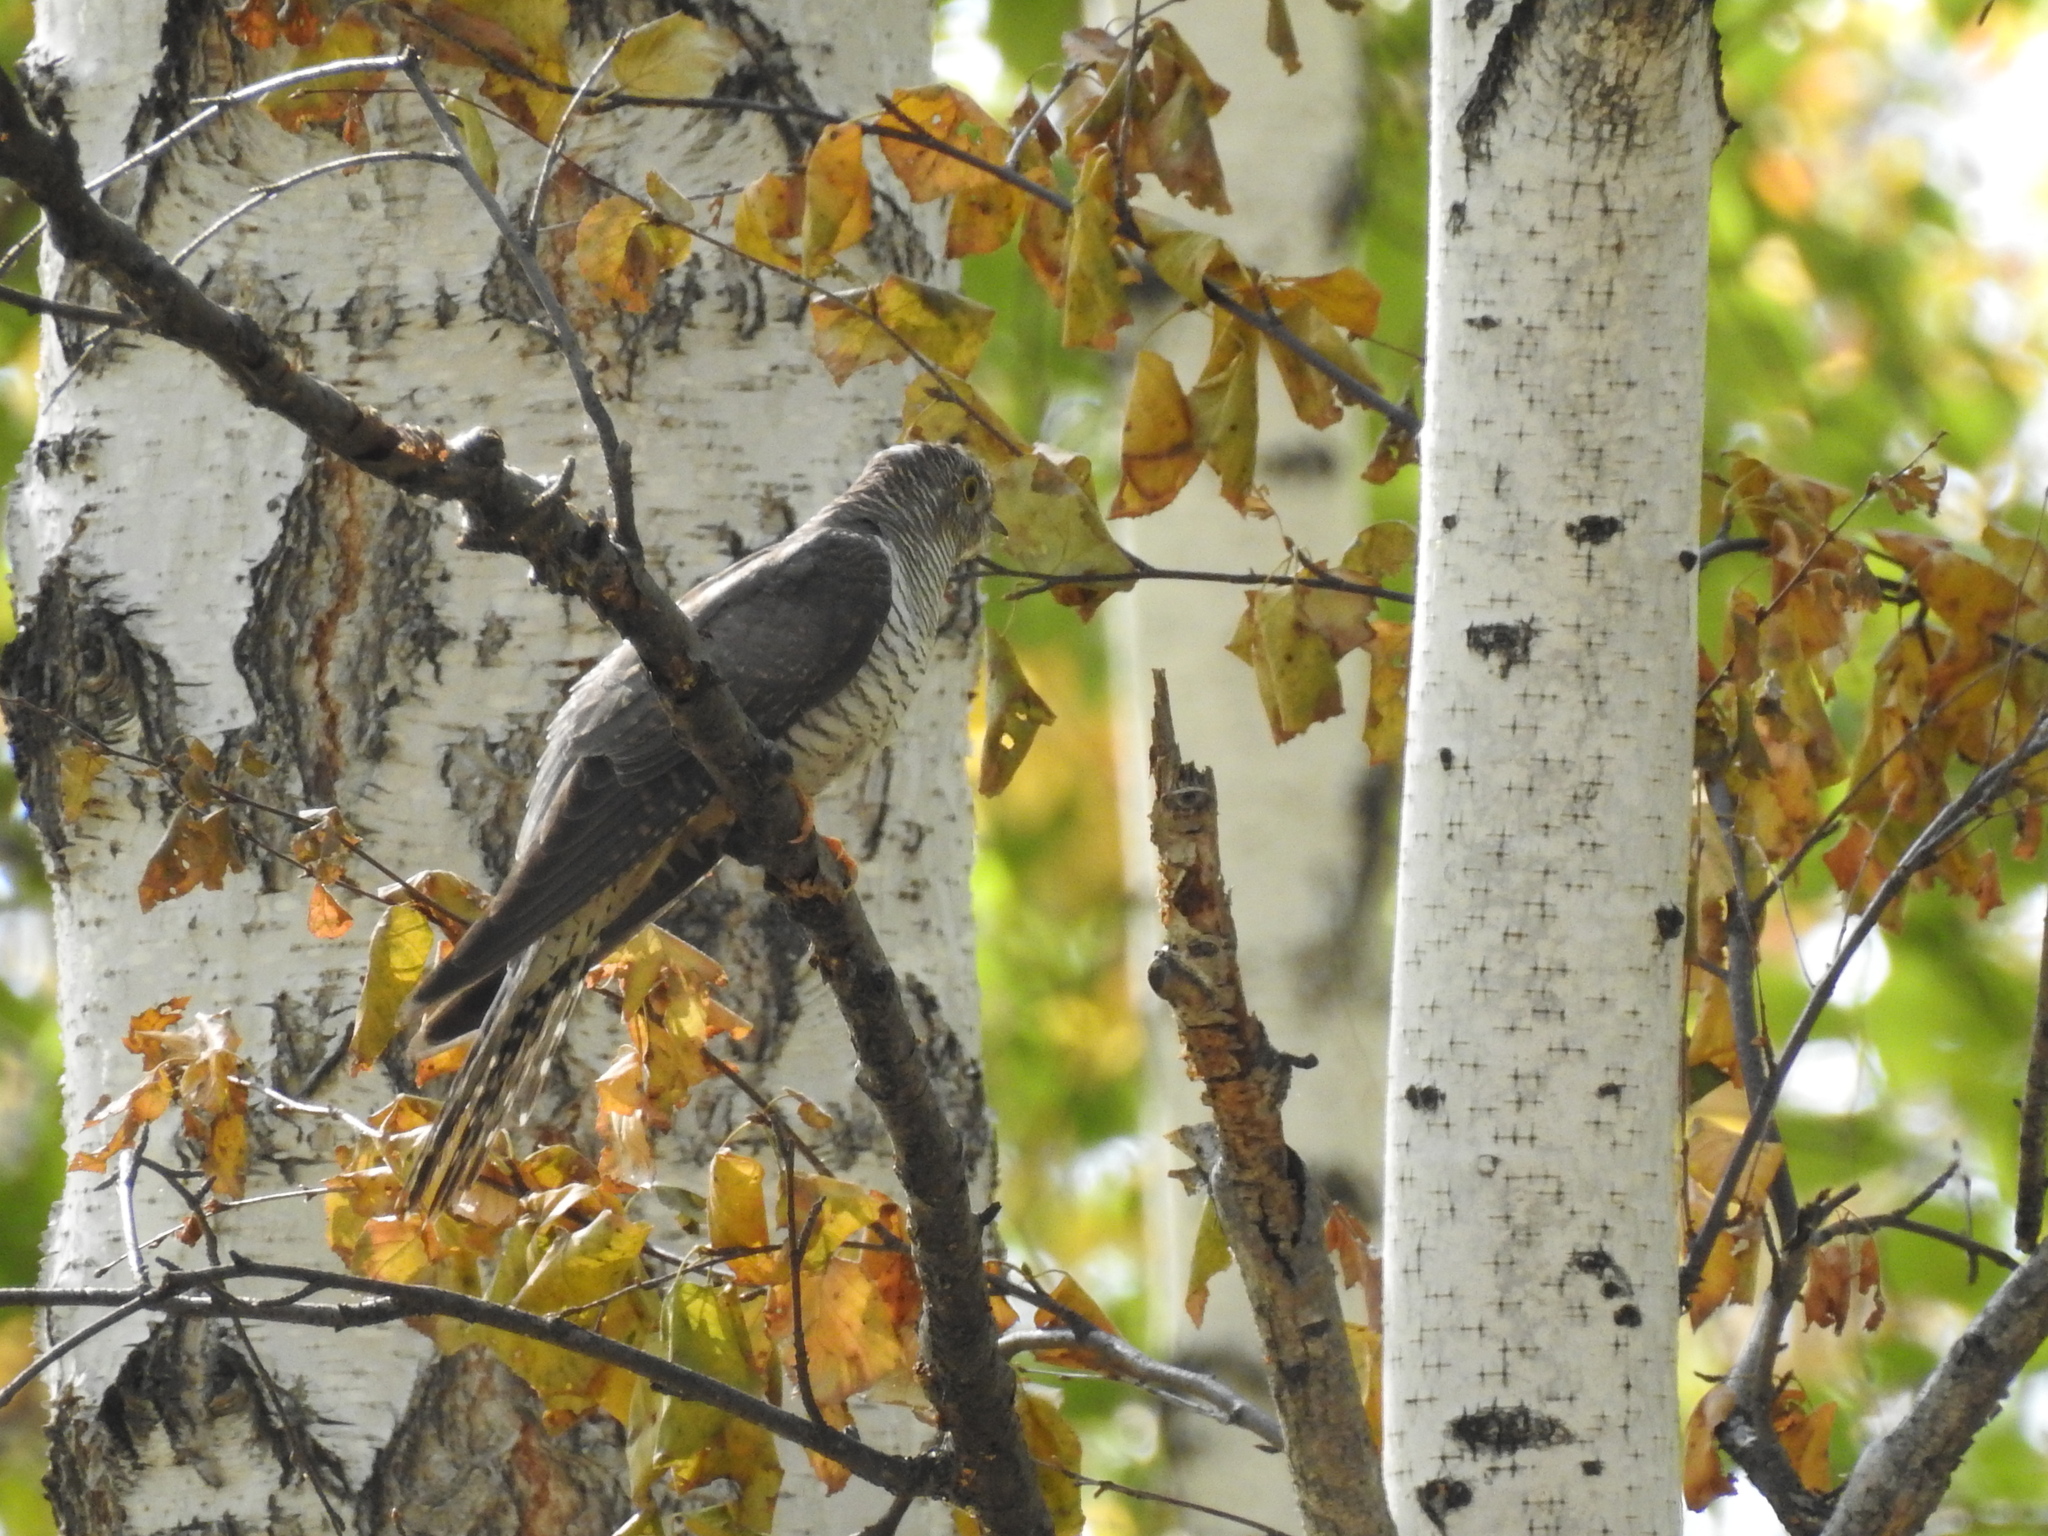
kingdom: Animalia
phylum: Chordata
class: Aves
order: Cuculiformes
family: Cuculidae
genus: Cuculus
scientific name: Cuculus canorus
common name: Common cuckoo
